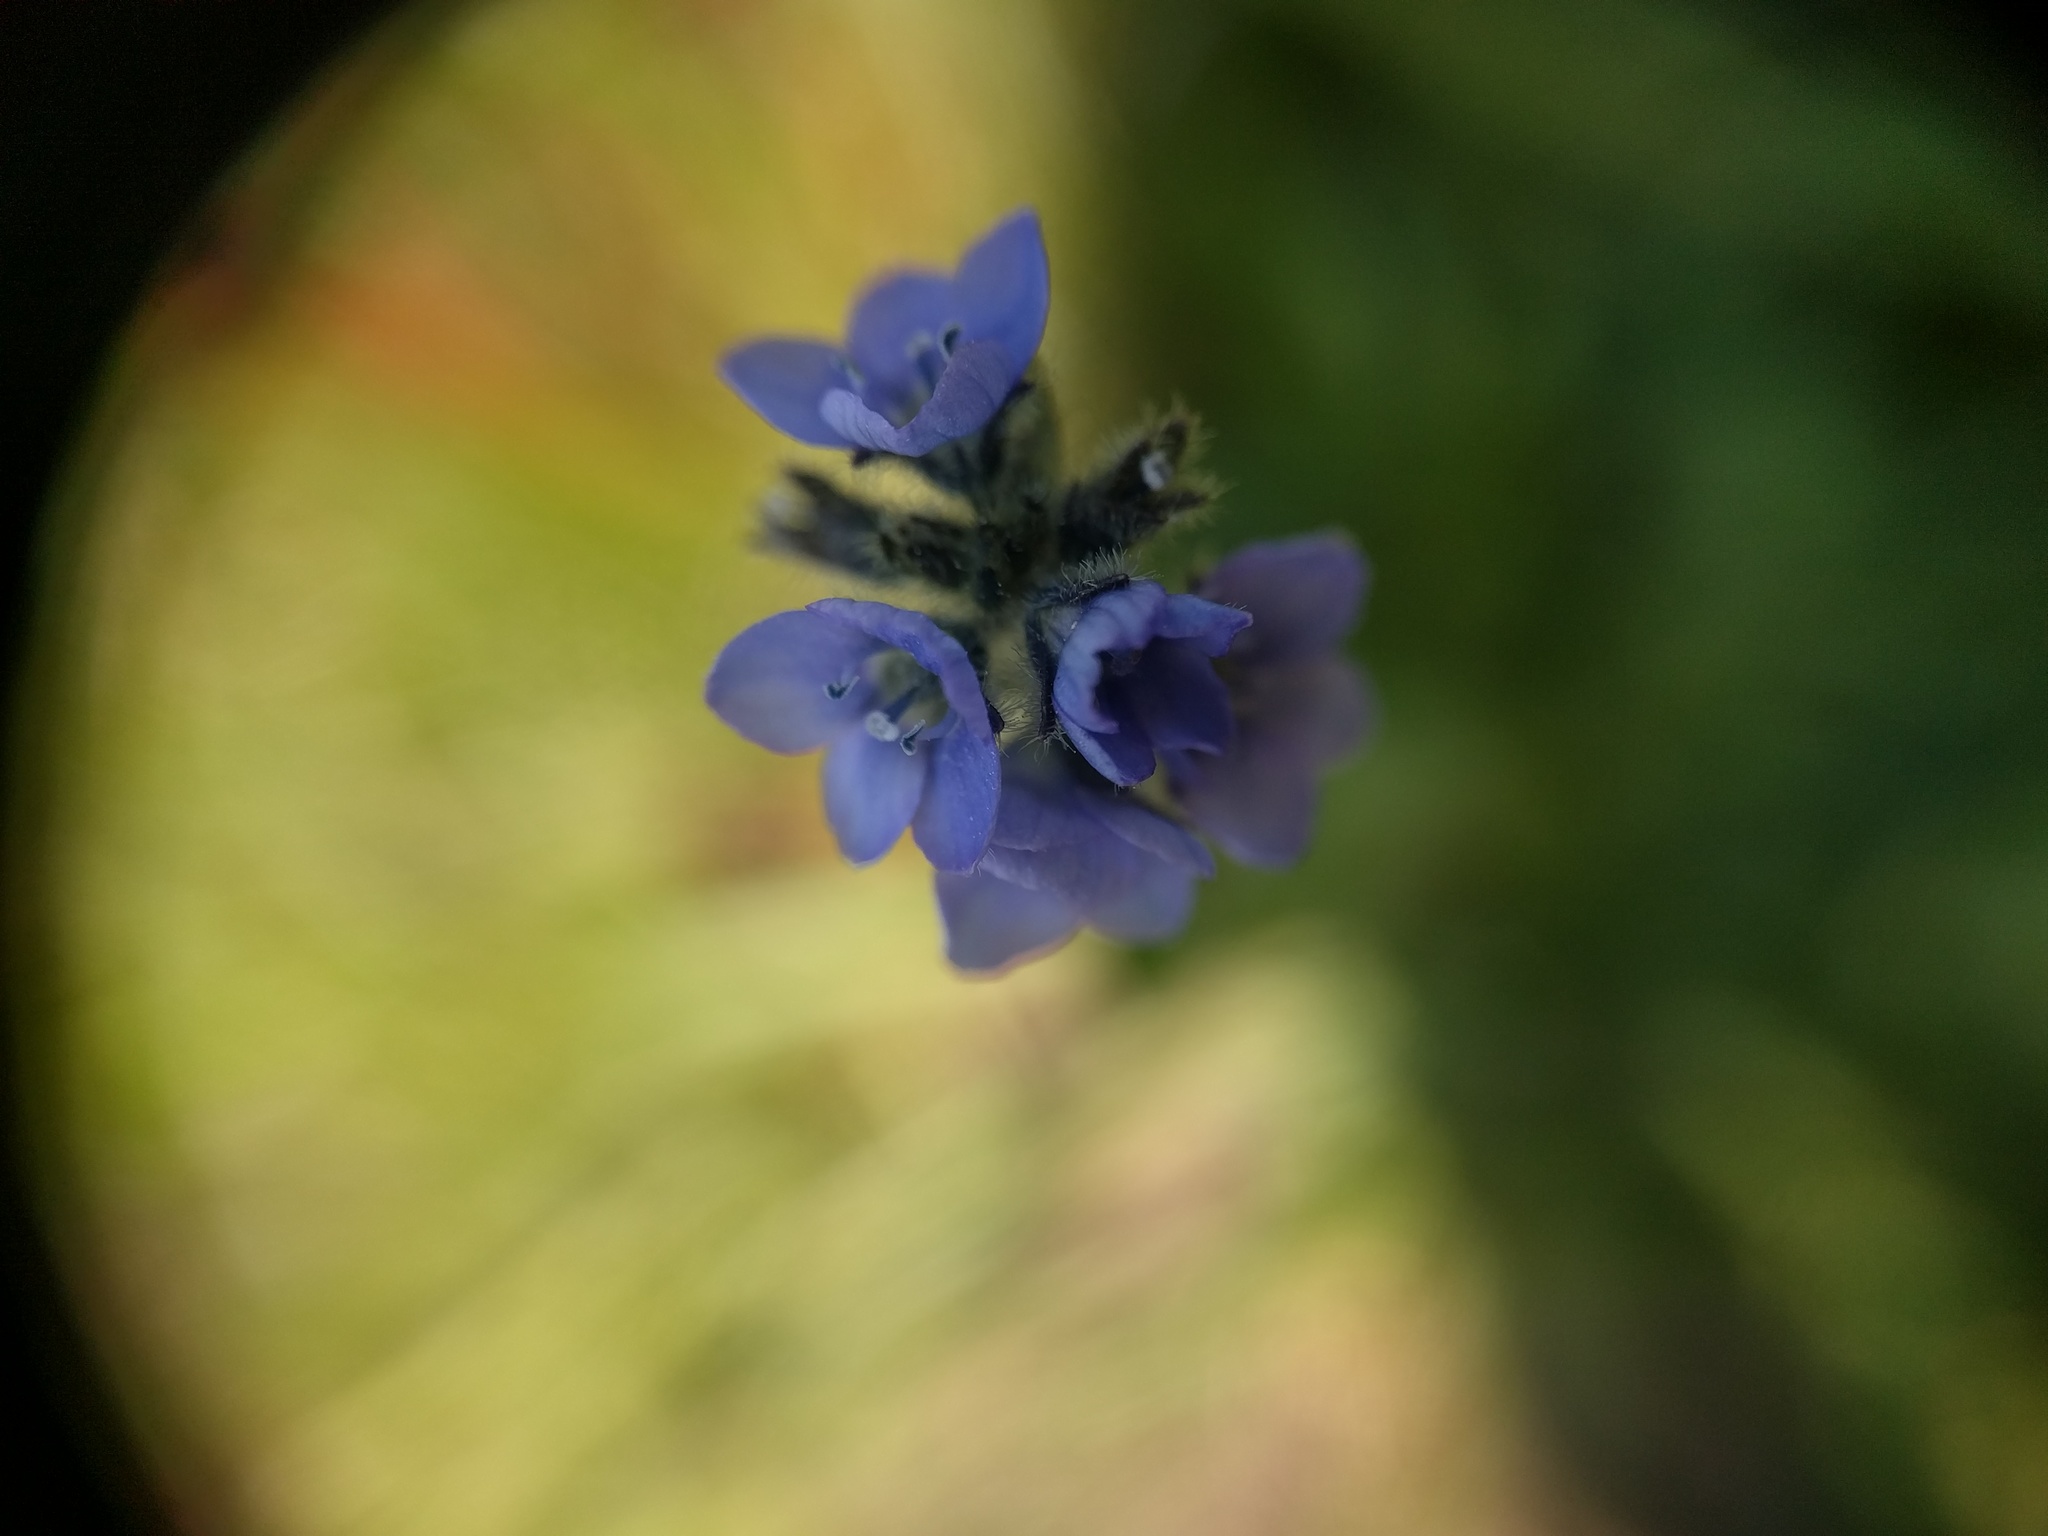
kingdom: Plantae
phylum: Tracheophyta
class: Magnoliopsida
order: Lamiales
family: Plantaginaceae
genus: Veronica
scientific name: Veronica wormskjoldii
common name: American alpine speedwell
